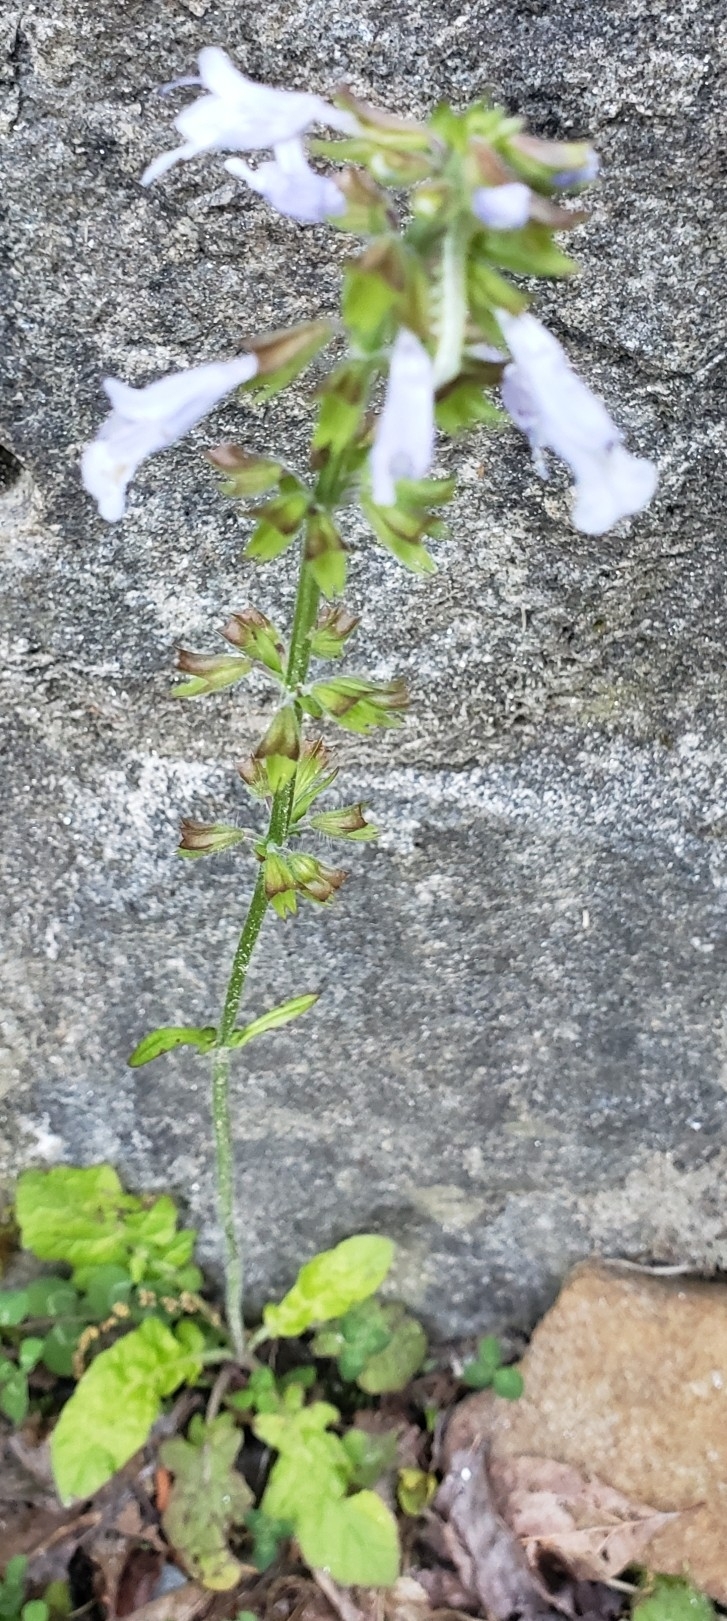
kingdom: Plantae
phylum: Tracheophyta
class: Magnoliopsida
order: Lamiales
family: Lamiaceae
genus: Salvia
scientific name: Salvia lyrata
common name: Cancerweed
